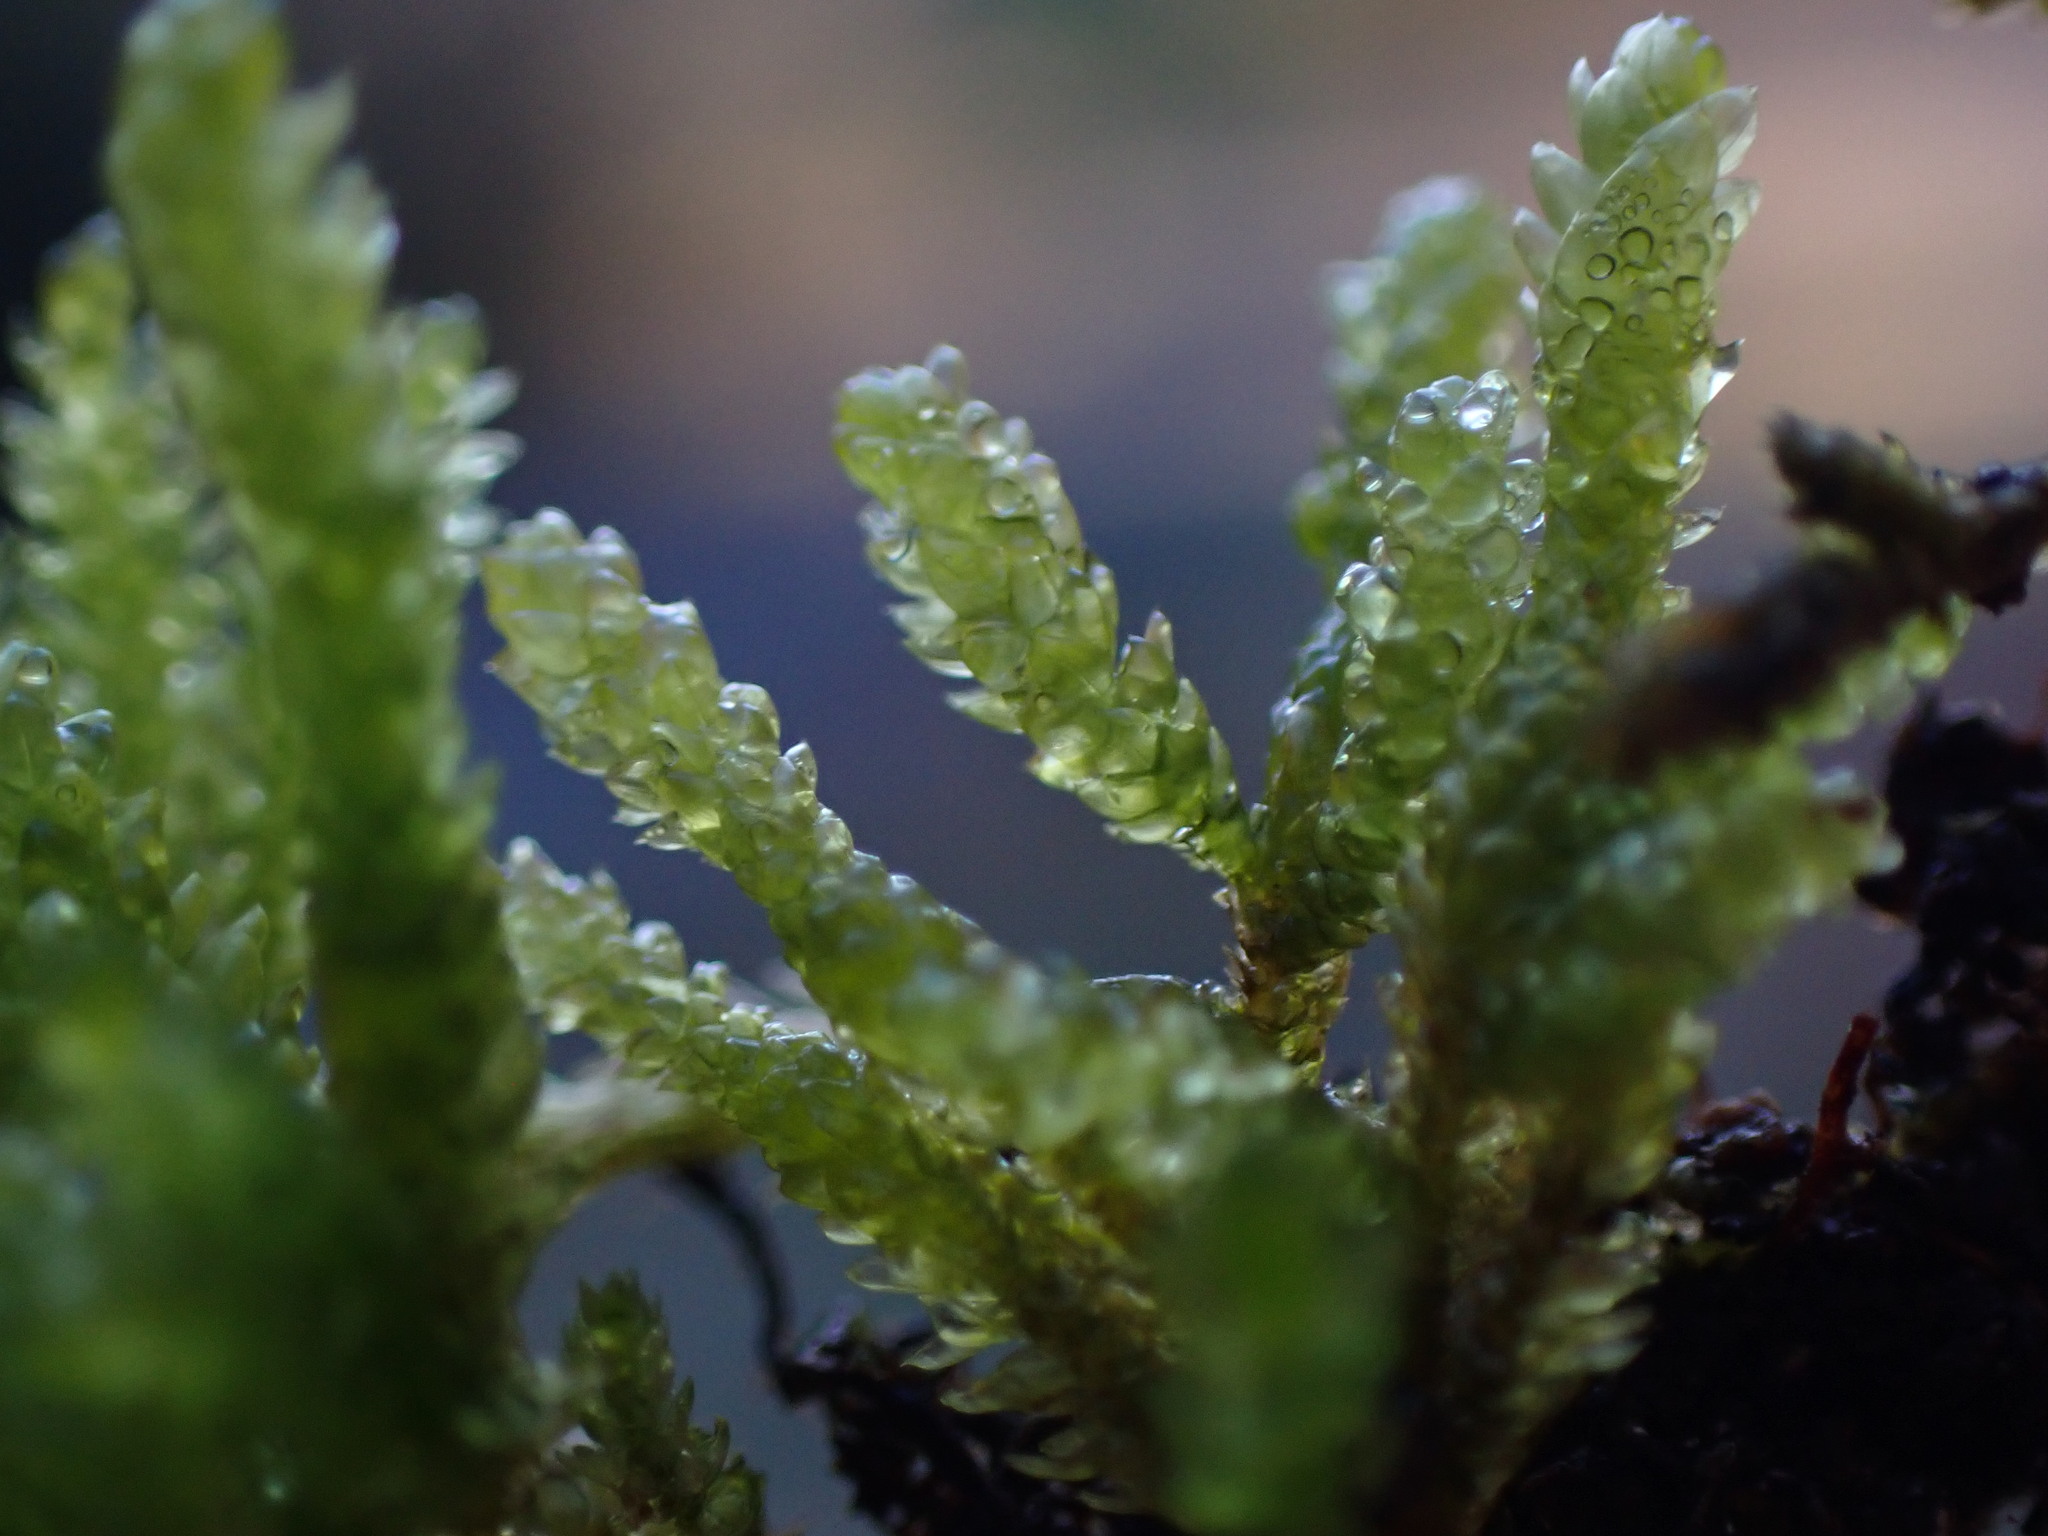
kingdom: Plantae
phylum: Bryophyta
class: Bryopsida
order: Hypnales
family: Brachytheciaceae
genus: Scleropodium
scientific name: Scleropodium touretii
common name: Glass-wort feather-moss
